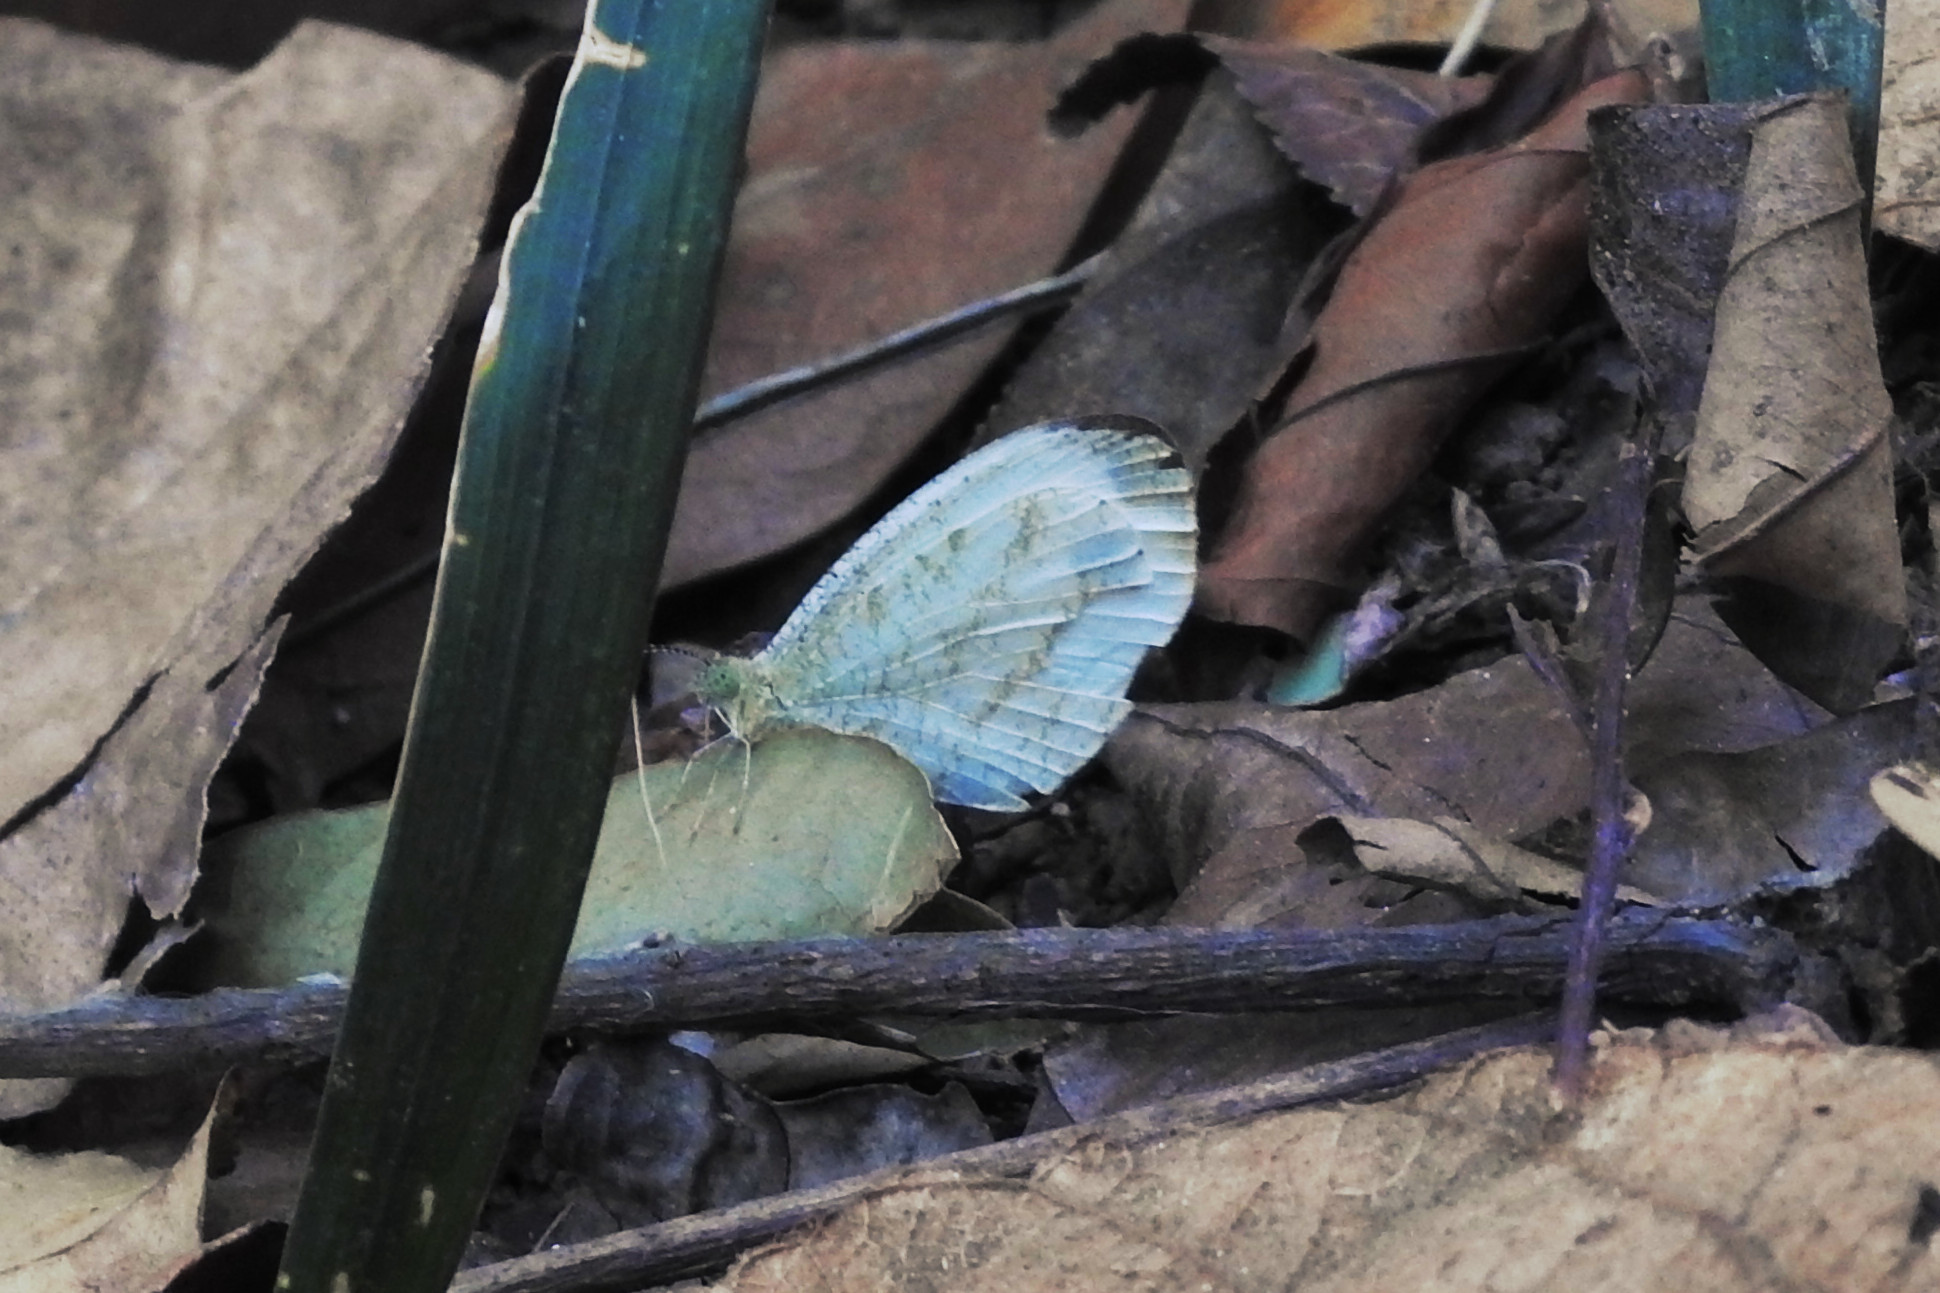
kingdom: Animalia
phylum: Arthropoda
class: Insecta
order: Lepidoptera
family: Pieridae
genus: Leptosia
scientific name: Leptosia nina
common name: Psyche
